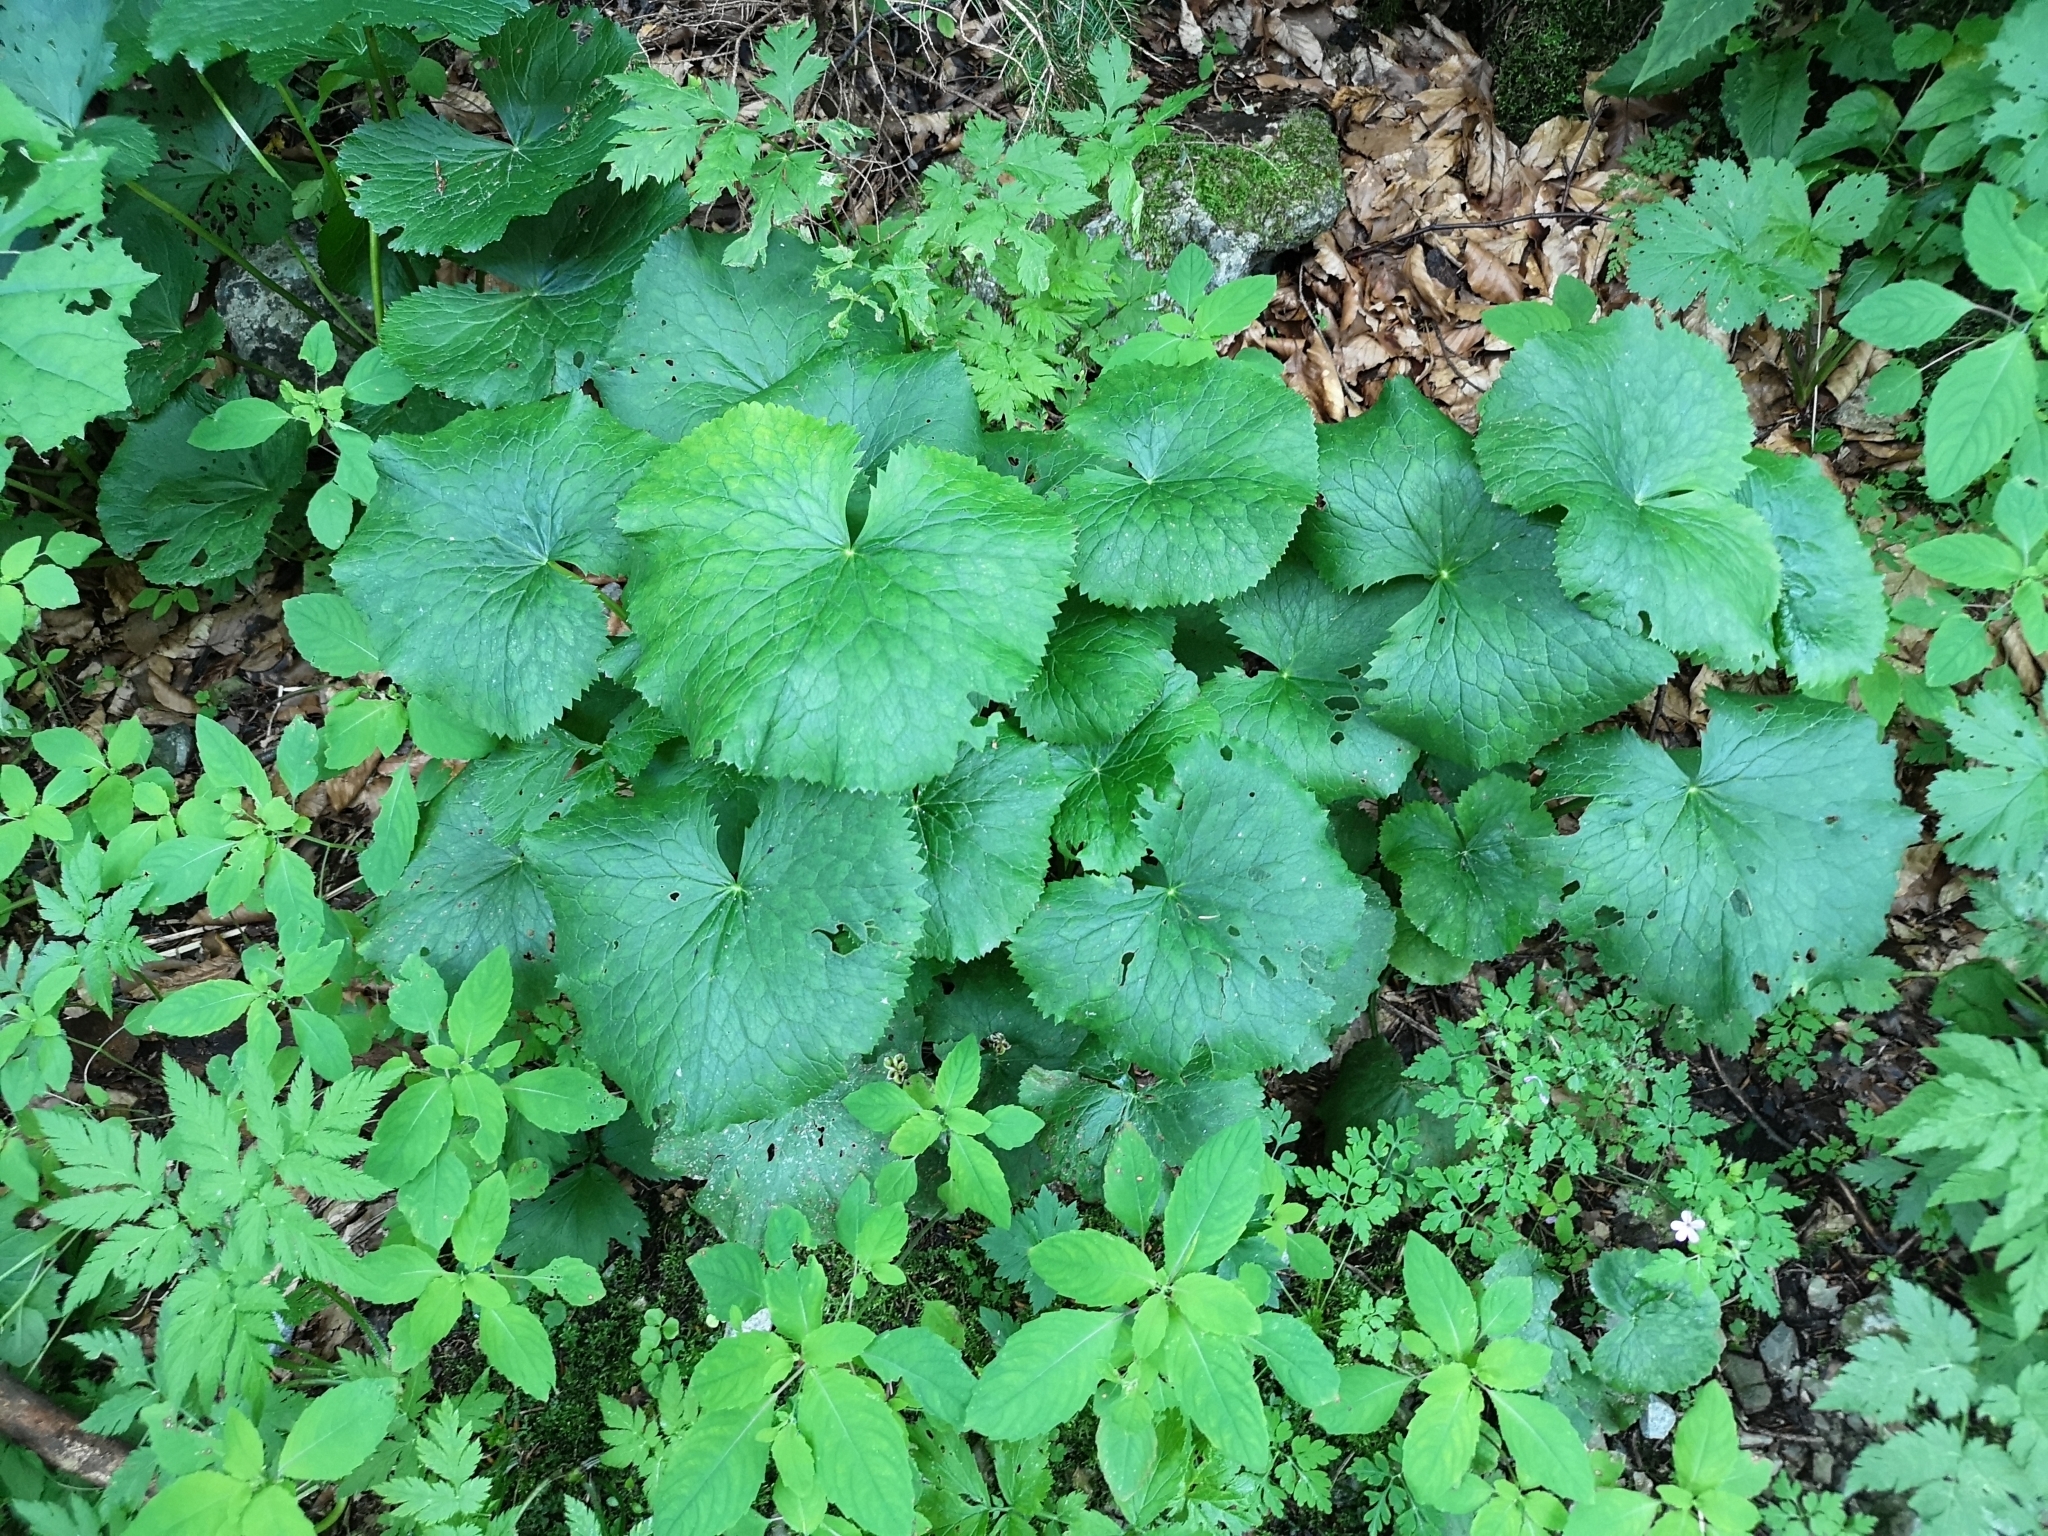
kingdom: Plantae
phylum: Tracheophyta
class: Magnoliopsida
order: Ranunculales
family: Ranunculaceae
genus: Caltha
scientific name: Caltha palustris
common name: Marsh marigold
